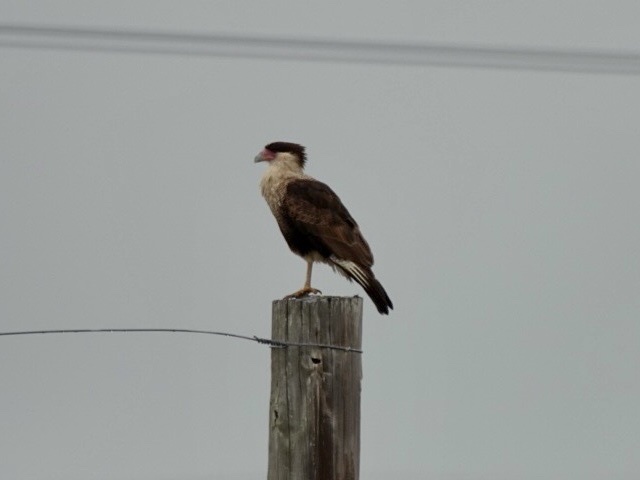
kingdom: Animalia
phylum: Chordata
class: Aves
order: Falconiformes
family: Falconidae
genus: Caracara
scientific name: Caracara plancus
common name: Southern caracara
